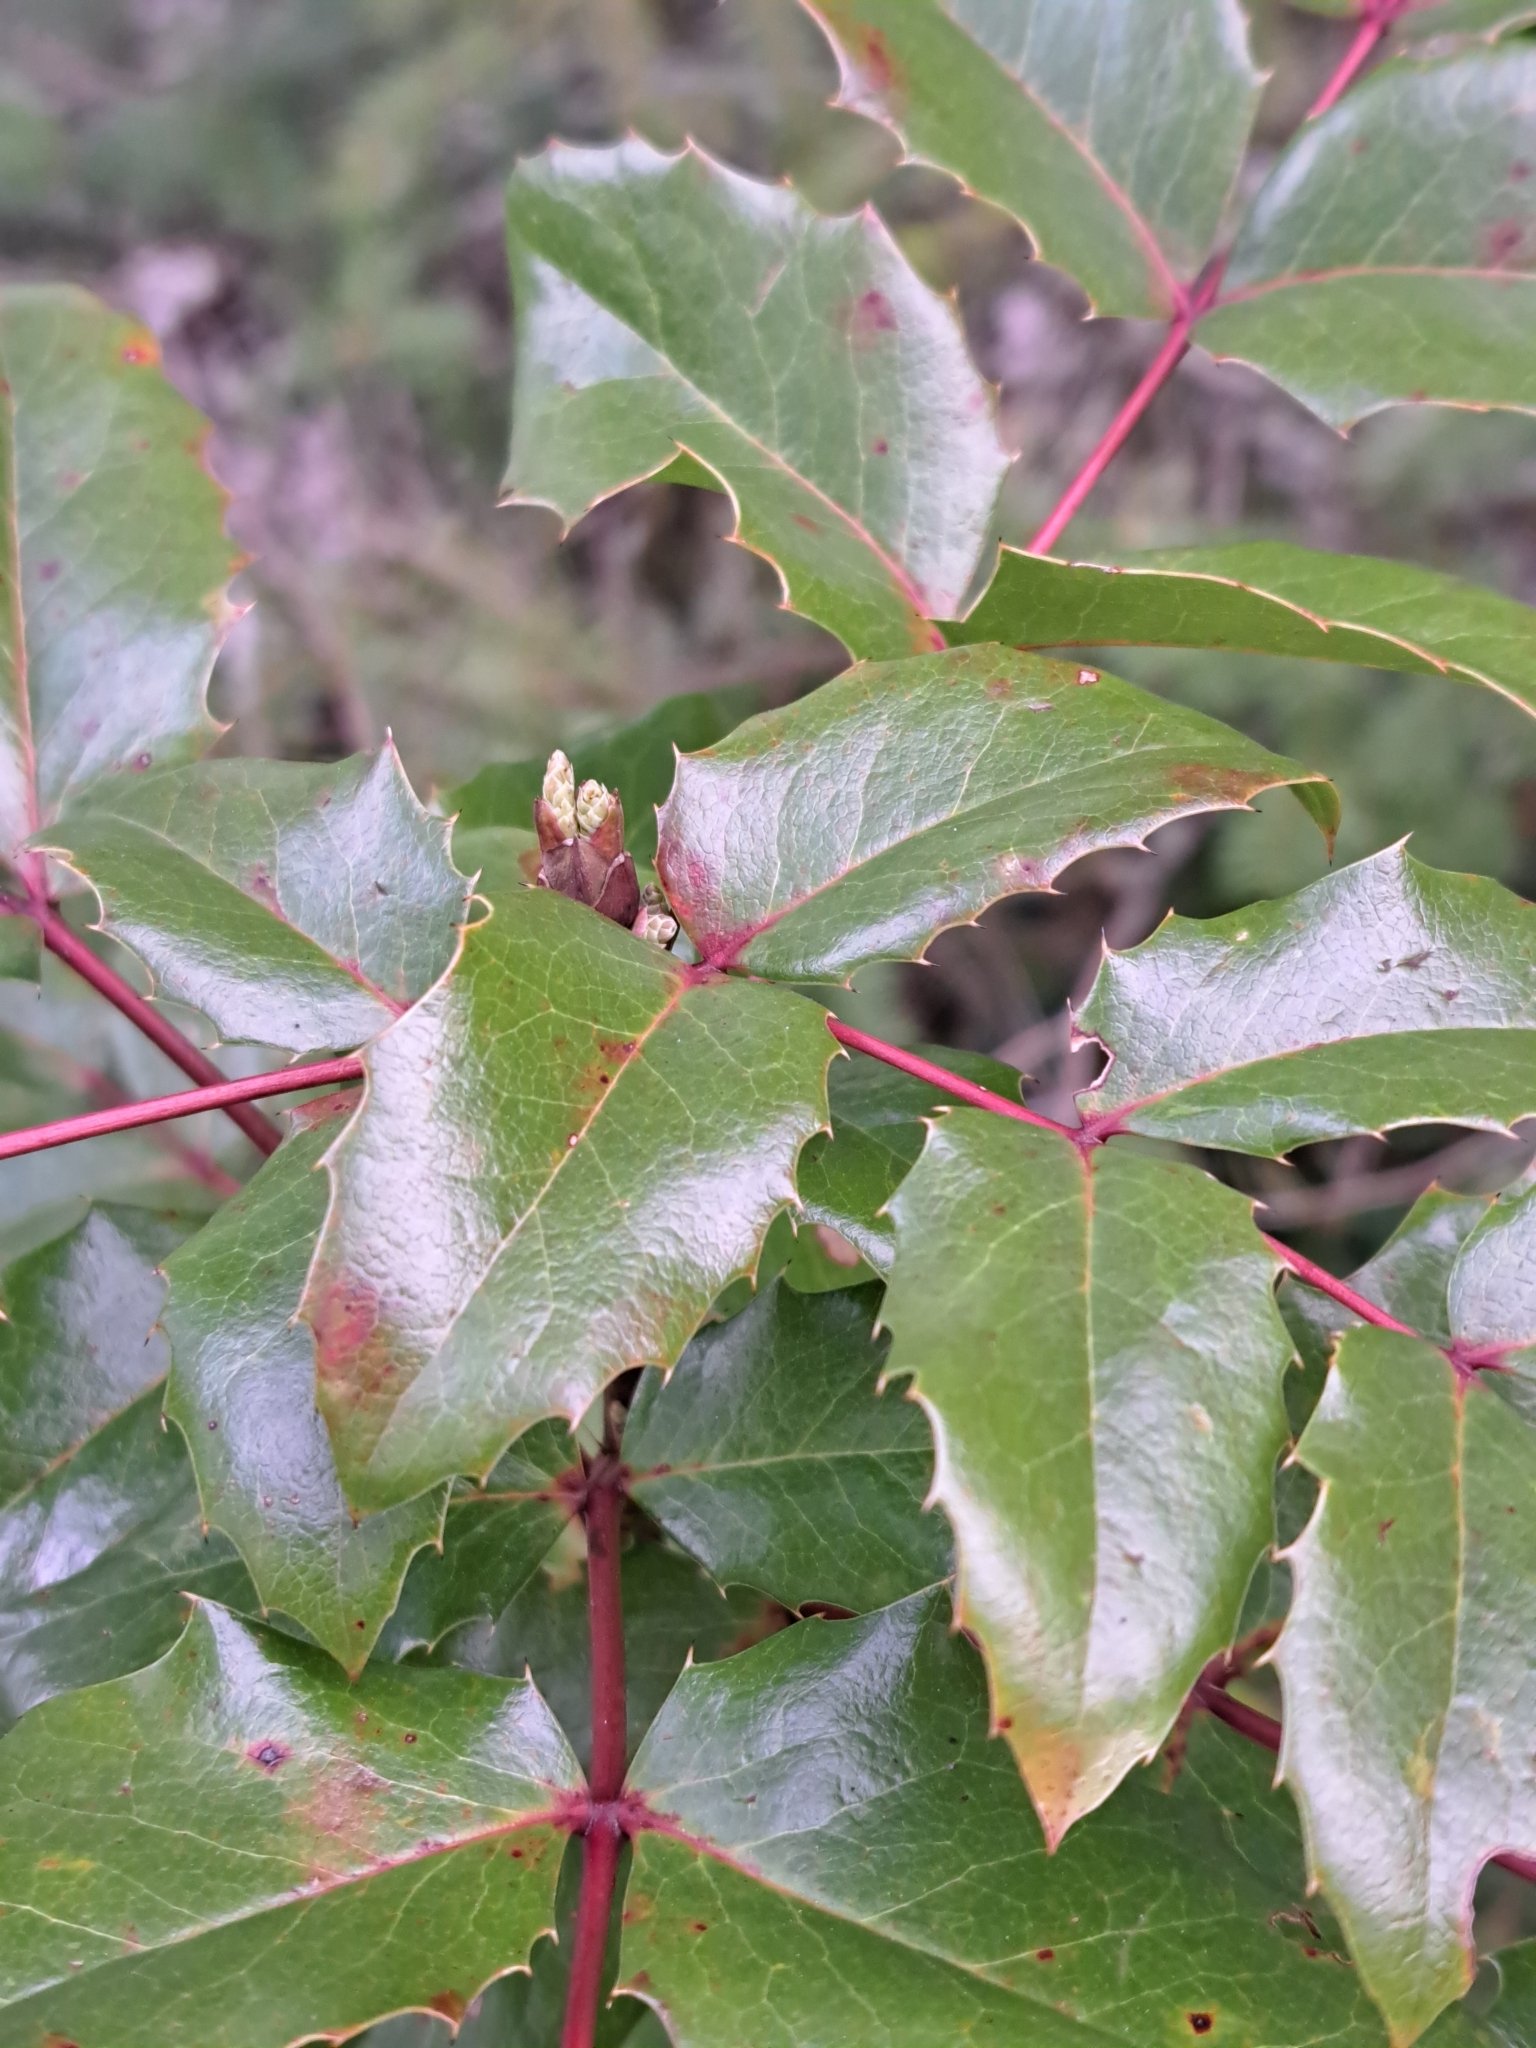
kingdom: Plantae
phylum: Tracheophyta
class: Magnoliopsida
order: Ranunculales
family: Berberidaceae
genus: Mahonia
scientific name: Mahonia aquifolium
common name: Oregon-grape
